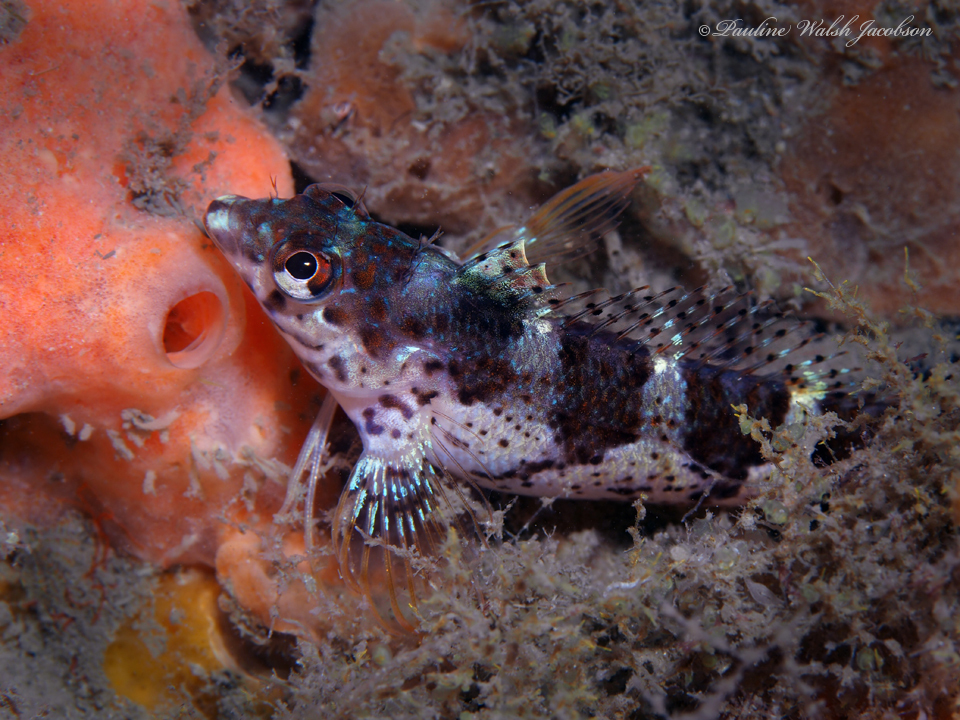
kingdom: Animalia
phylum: Chordata
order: Perciformes
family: Labrisomidae
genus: Malacoctenus
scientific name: Malacoctenus triangulatus
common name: Saddled blenny
